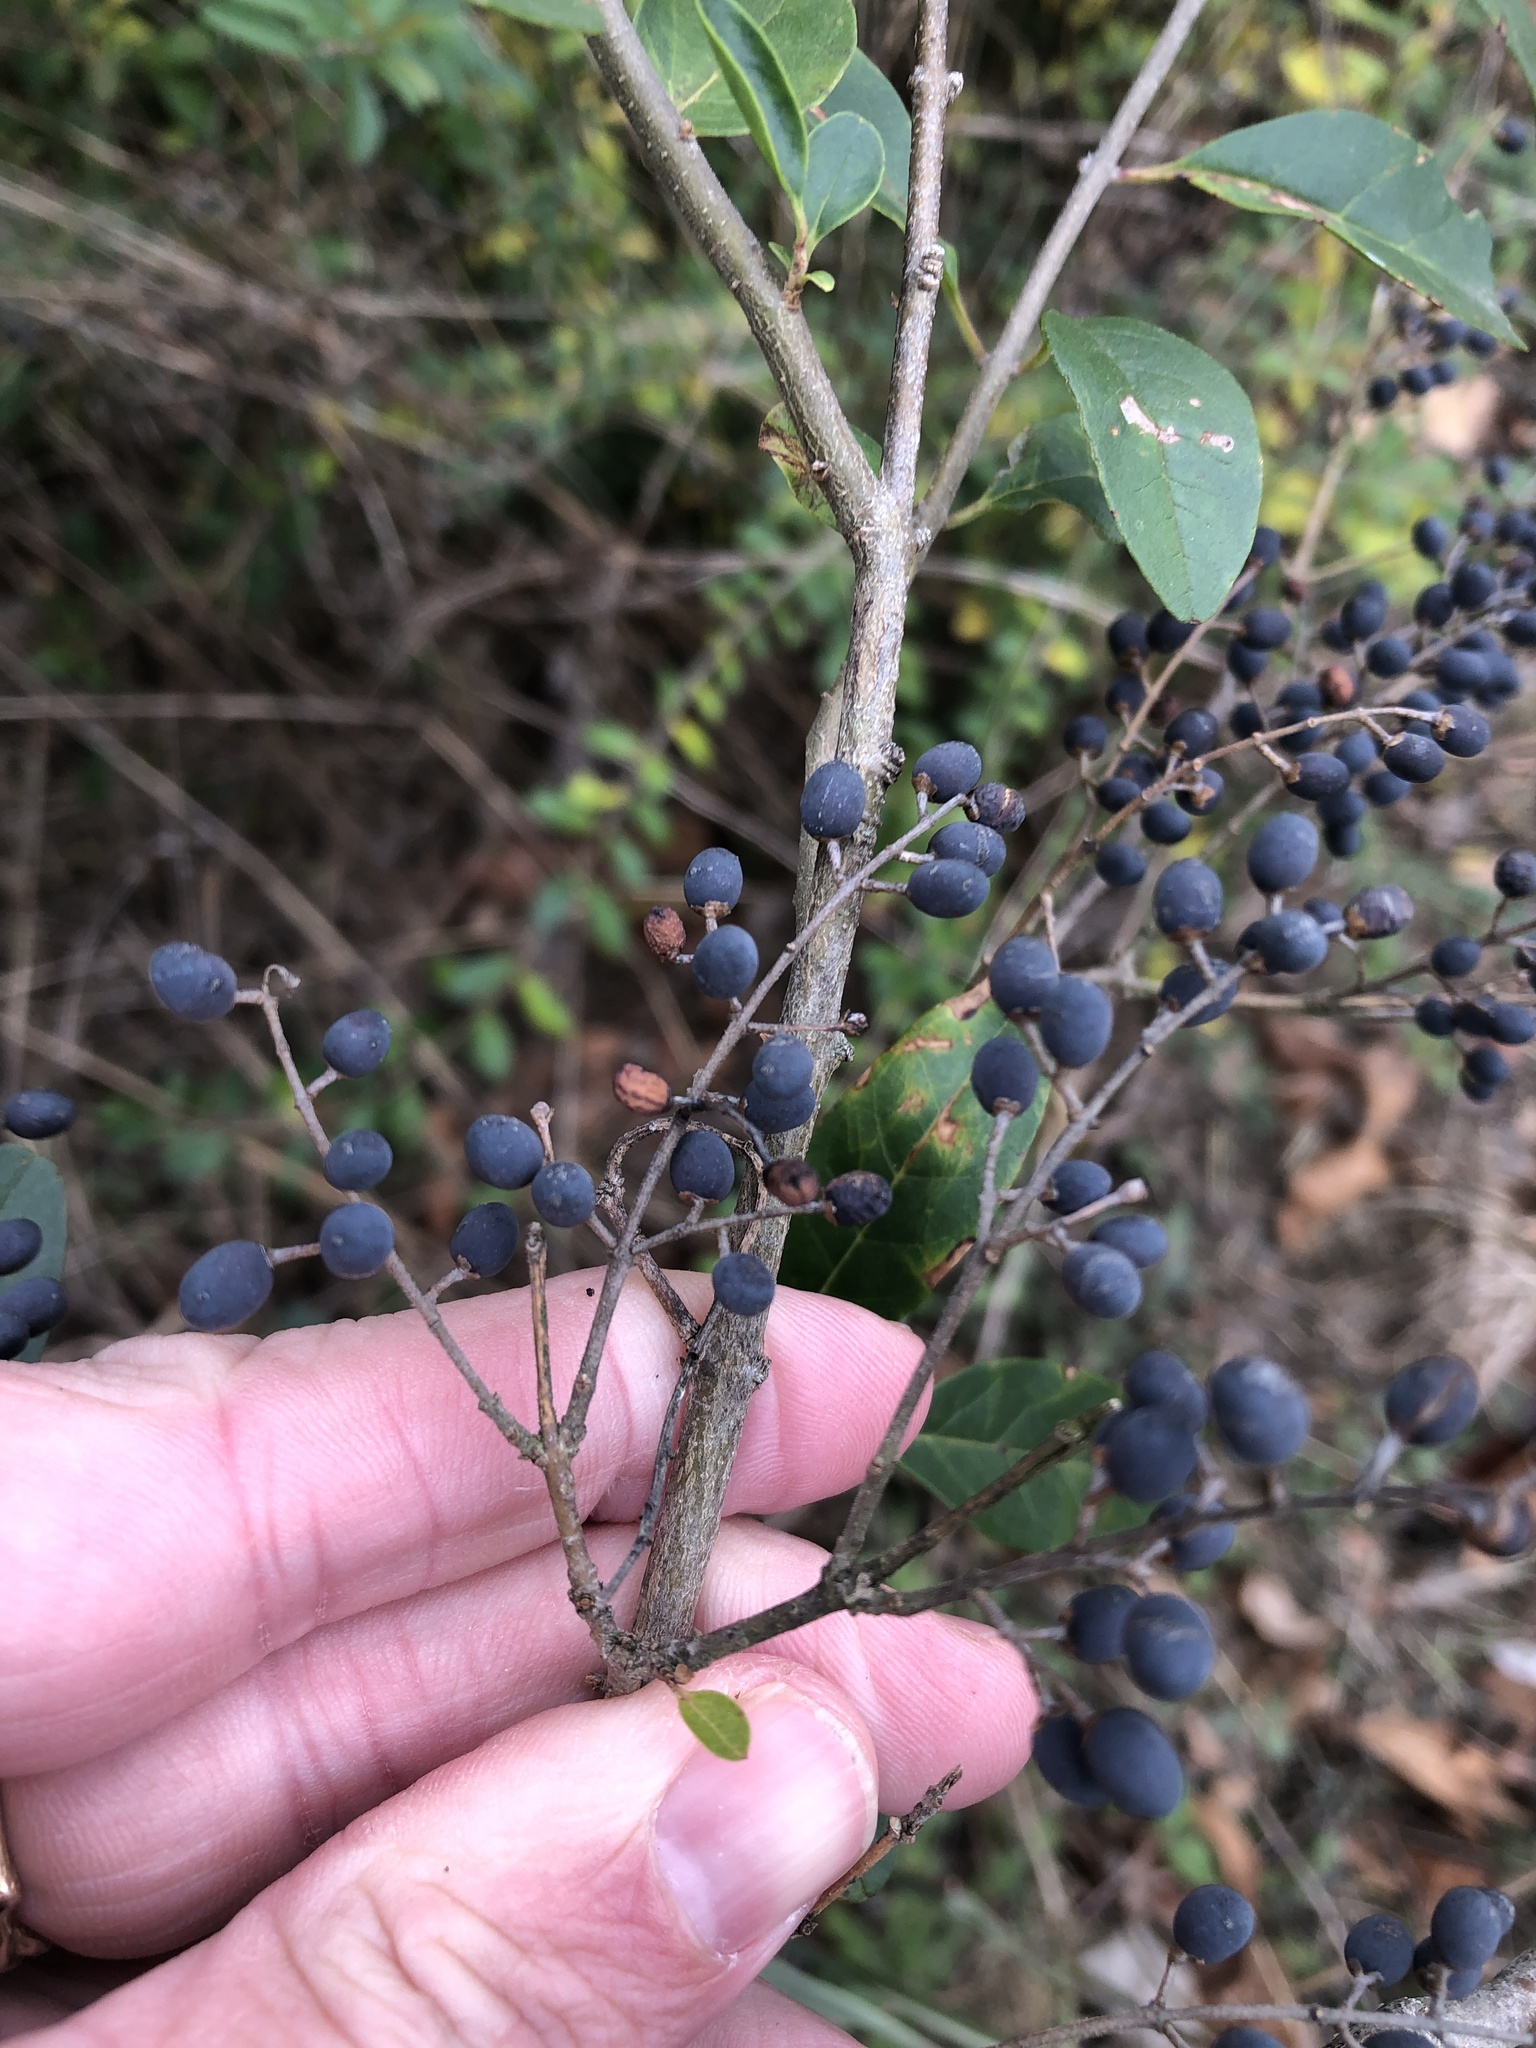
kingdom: Plantae
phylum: Tracheophyta
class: Magnoliopsida
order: Lamiales
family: Oleaceae
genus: Ligustrum
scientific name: Ligustrum sinense
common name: Chinese privet
